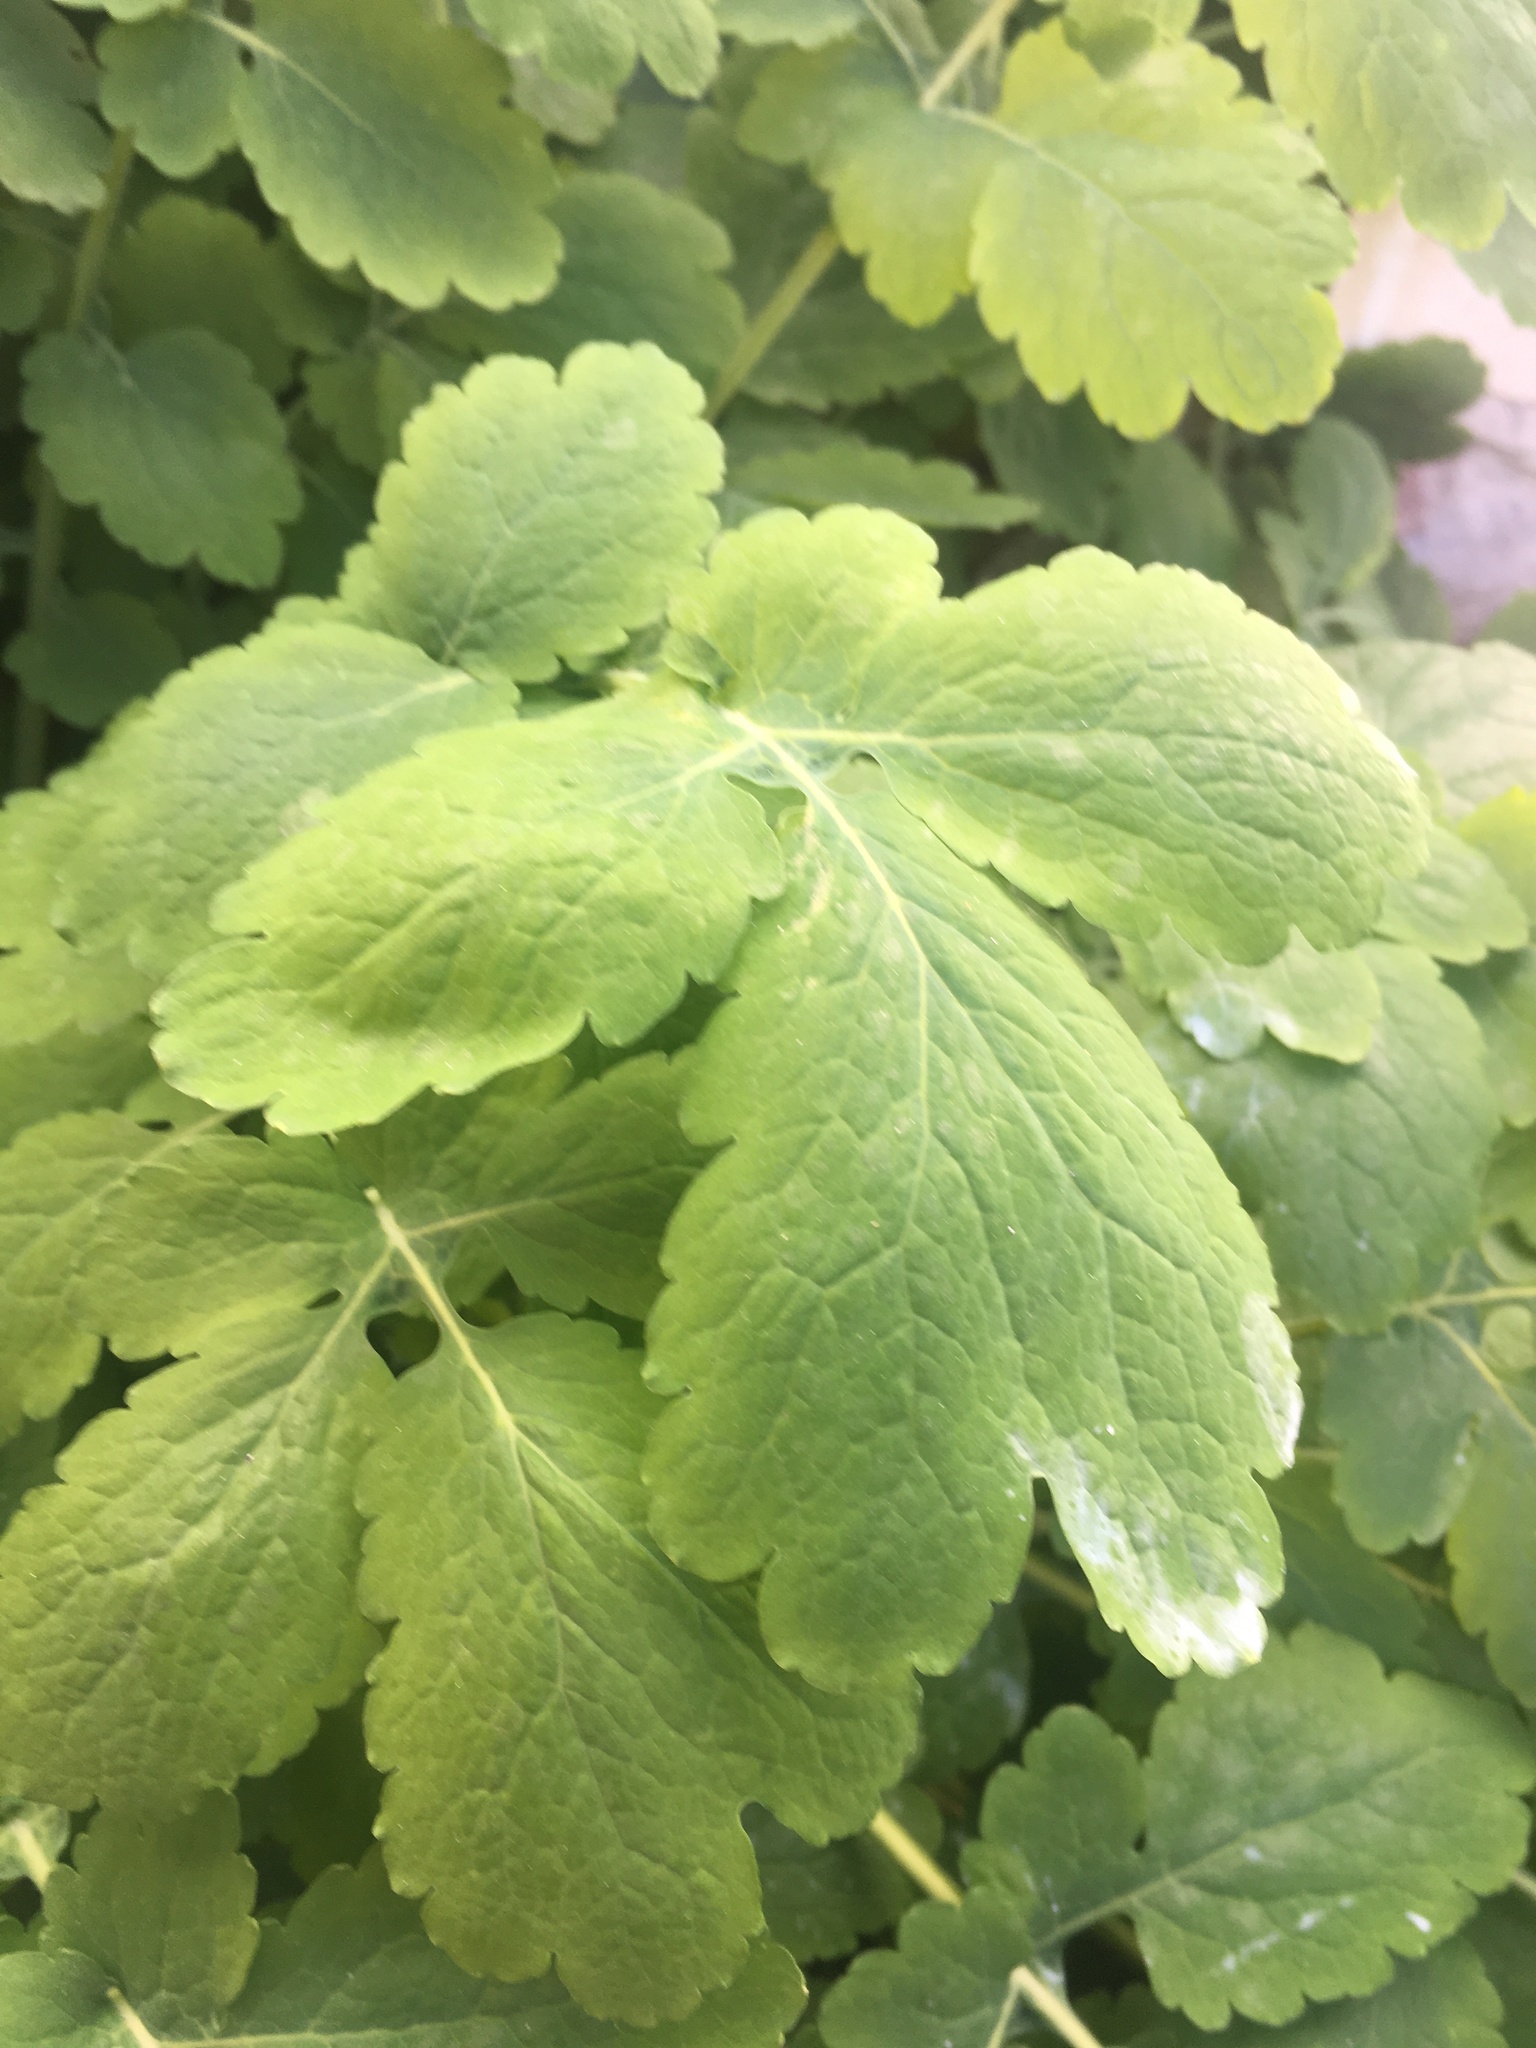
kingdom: Plantae
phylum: Tracheophyta
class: Magnoliopsida
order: Ranunculales
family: Papaveraceae
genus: Chelidonium
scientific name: Chelidonium majus
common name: Greater celandine
